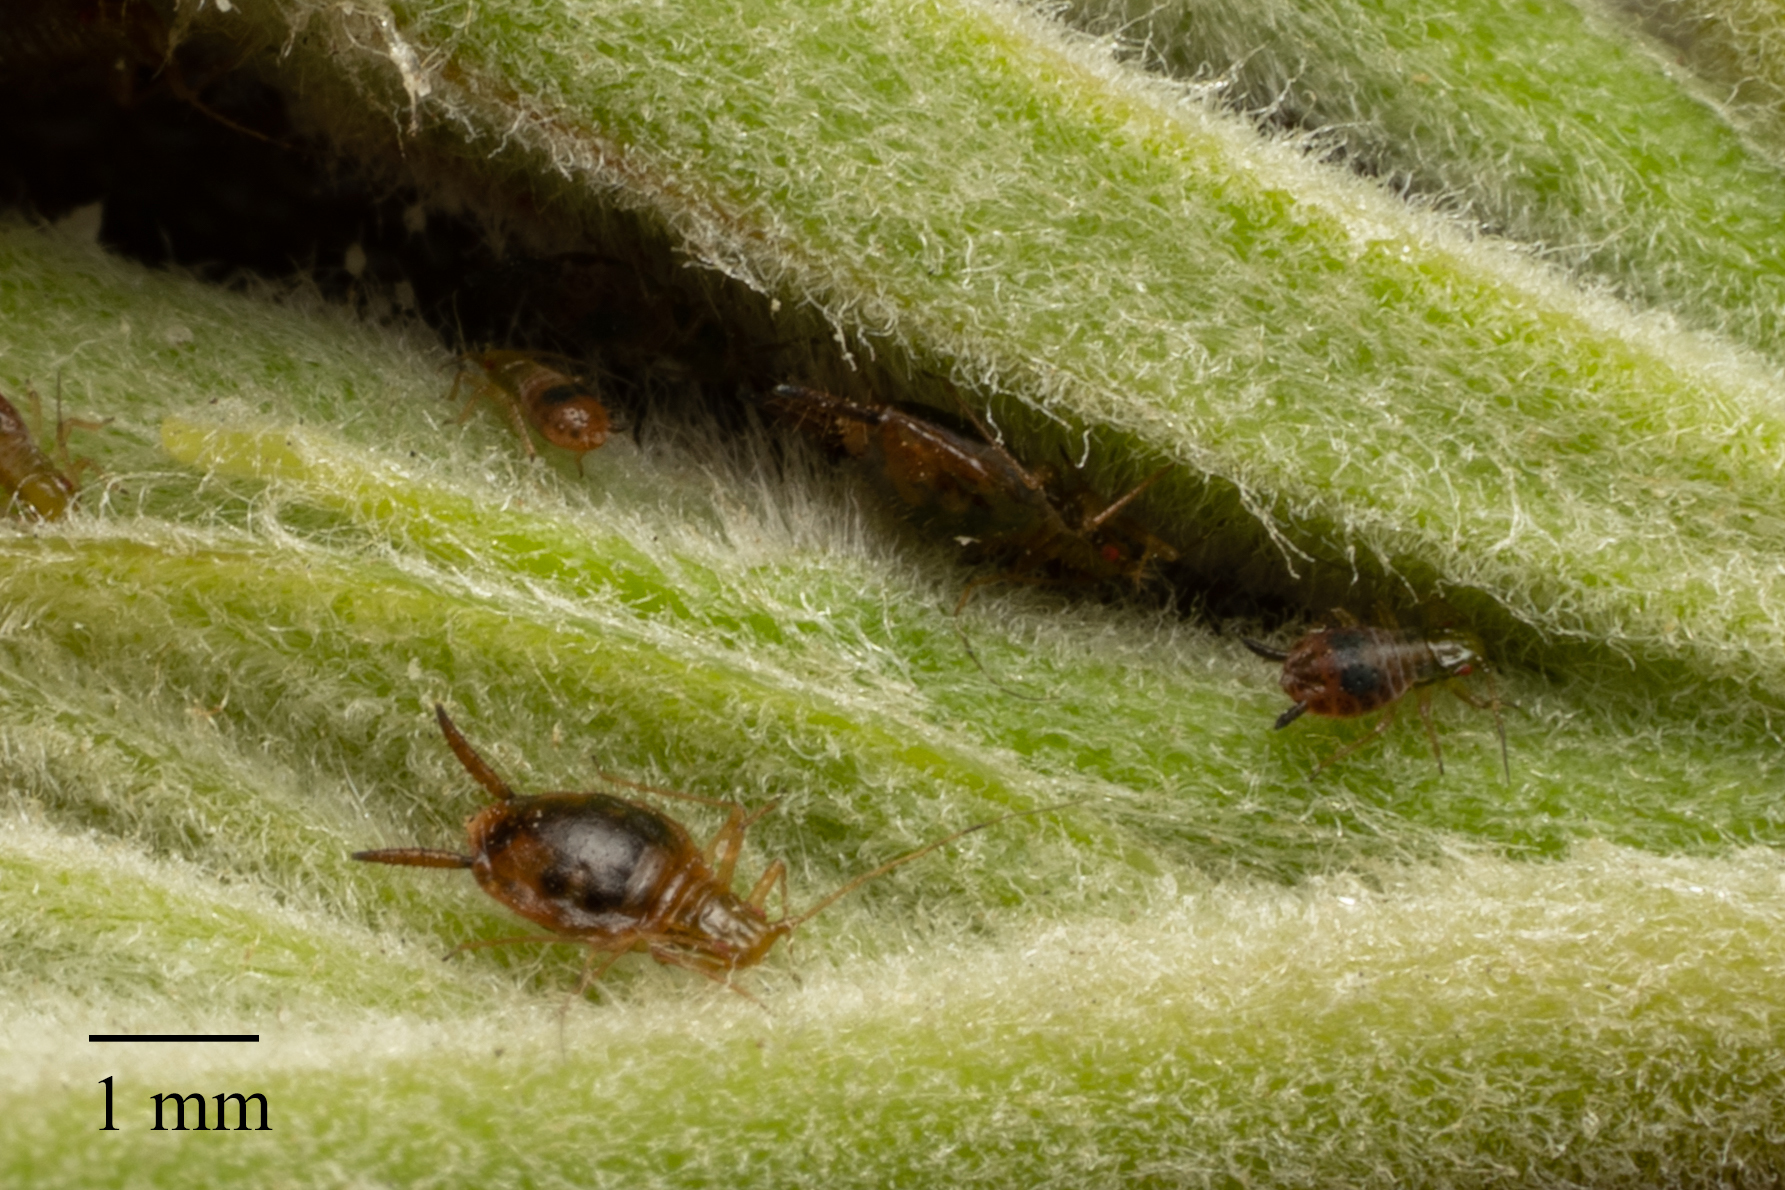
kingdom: Animalia
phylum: Arthropoda
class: Insecta
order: Hemiptera
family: Aphididae
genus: Greenidea
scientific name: Greenidea
